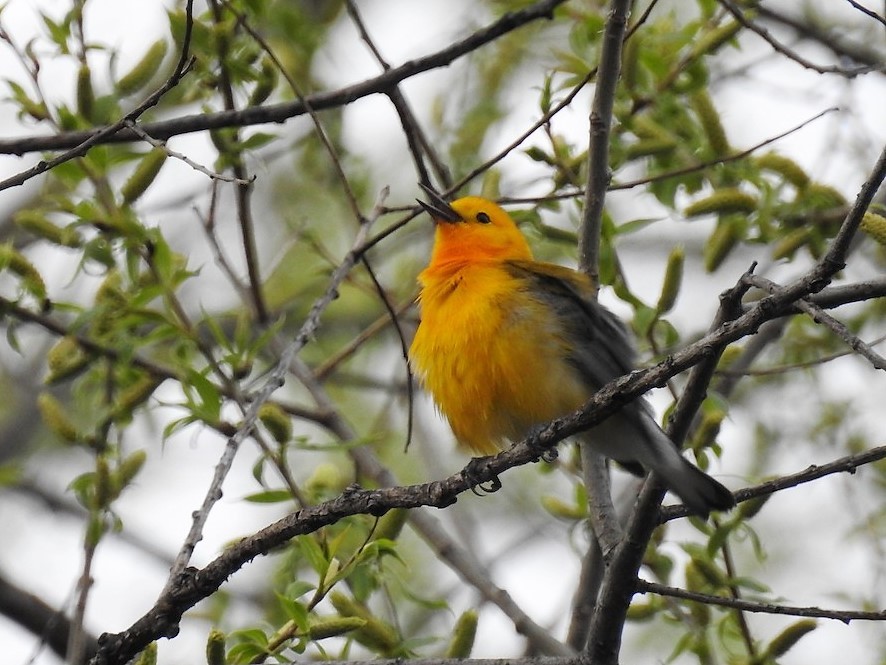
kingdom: Animalia
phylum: Chordata
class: Aves
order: Passeriformes
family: Parulidae
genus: Protonotaria
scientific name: Protonotaria citrea
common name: Prothonotary warbler
